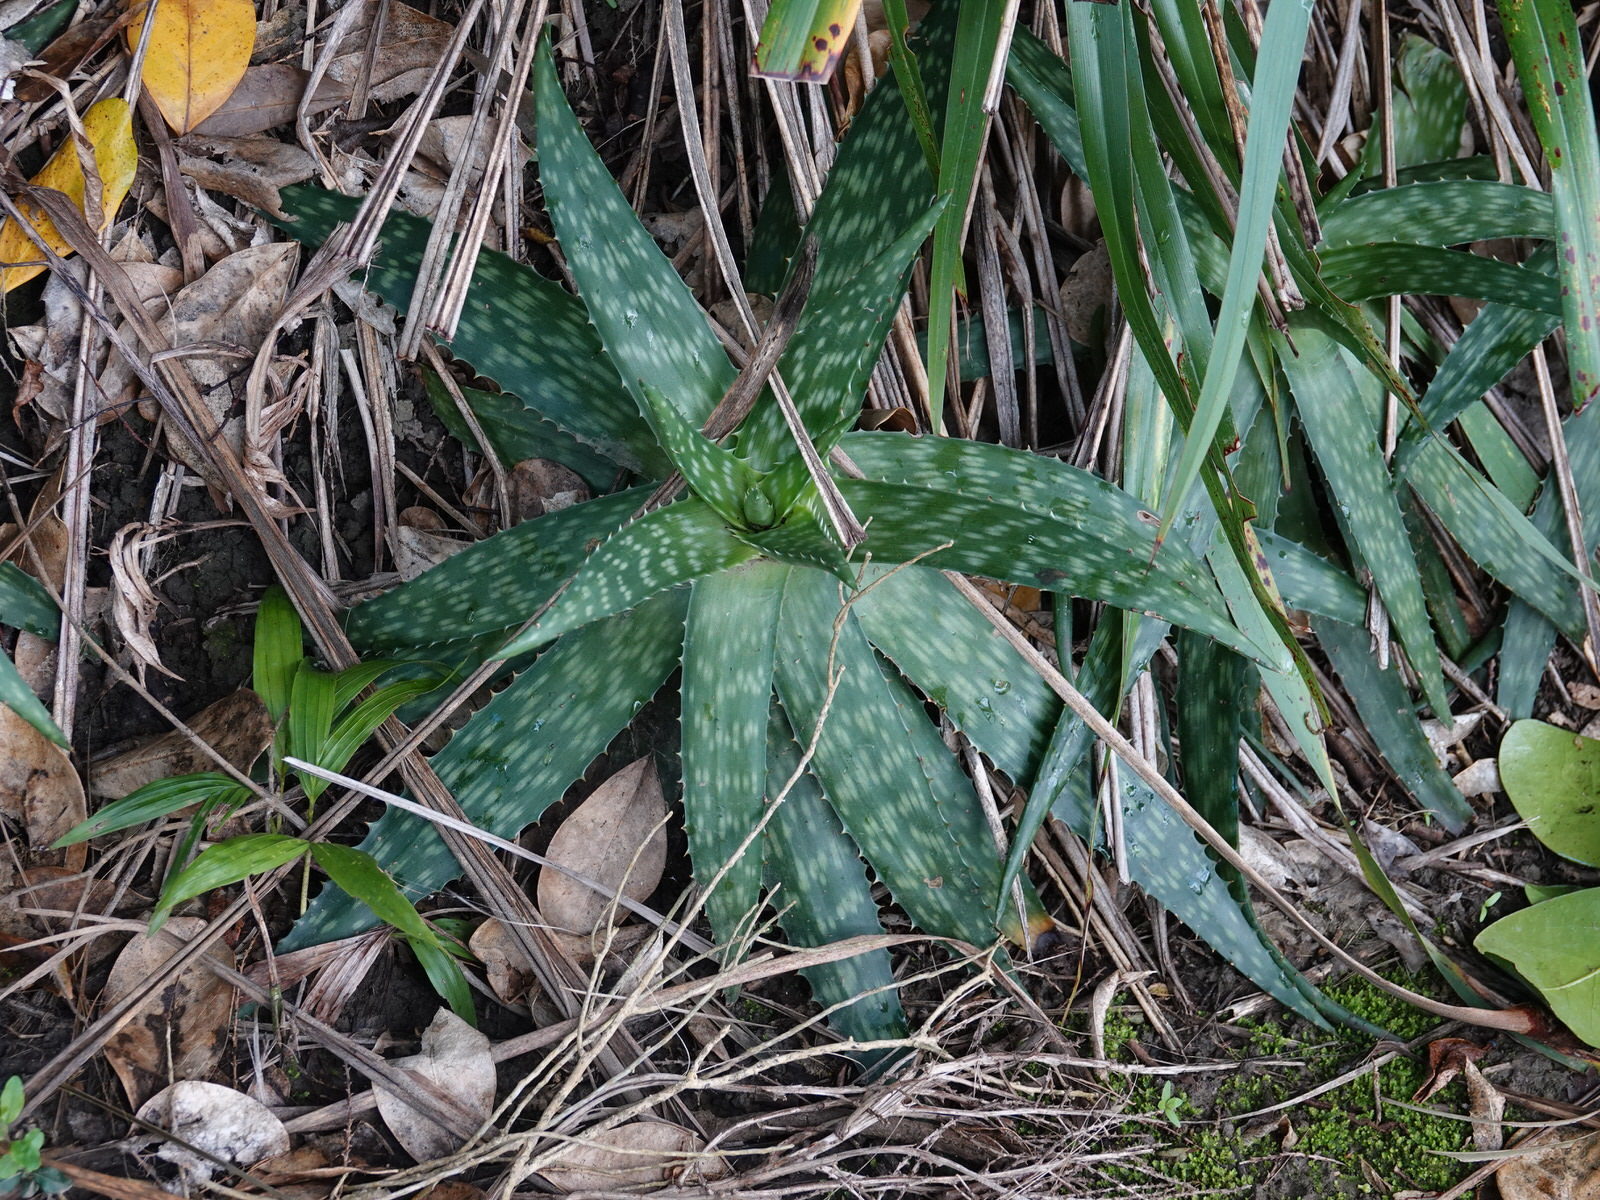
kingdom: Plantae
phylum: Tracheophyta
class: Liliopsida
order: Asparagales
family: Asphodelaceae
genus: Aloe
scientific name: Aloe maculata
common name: Broadleaf aloe
